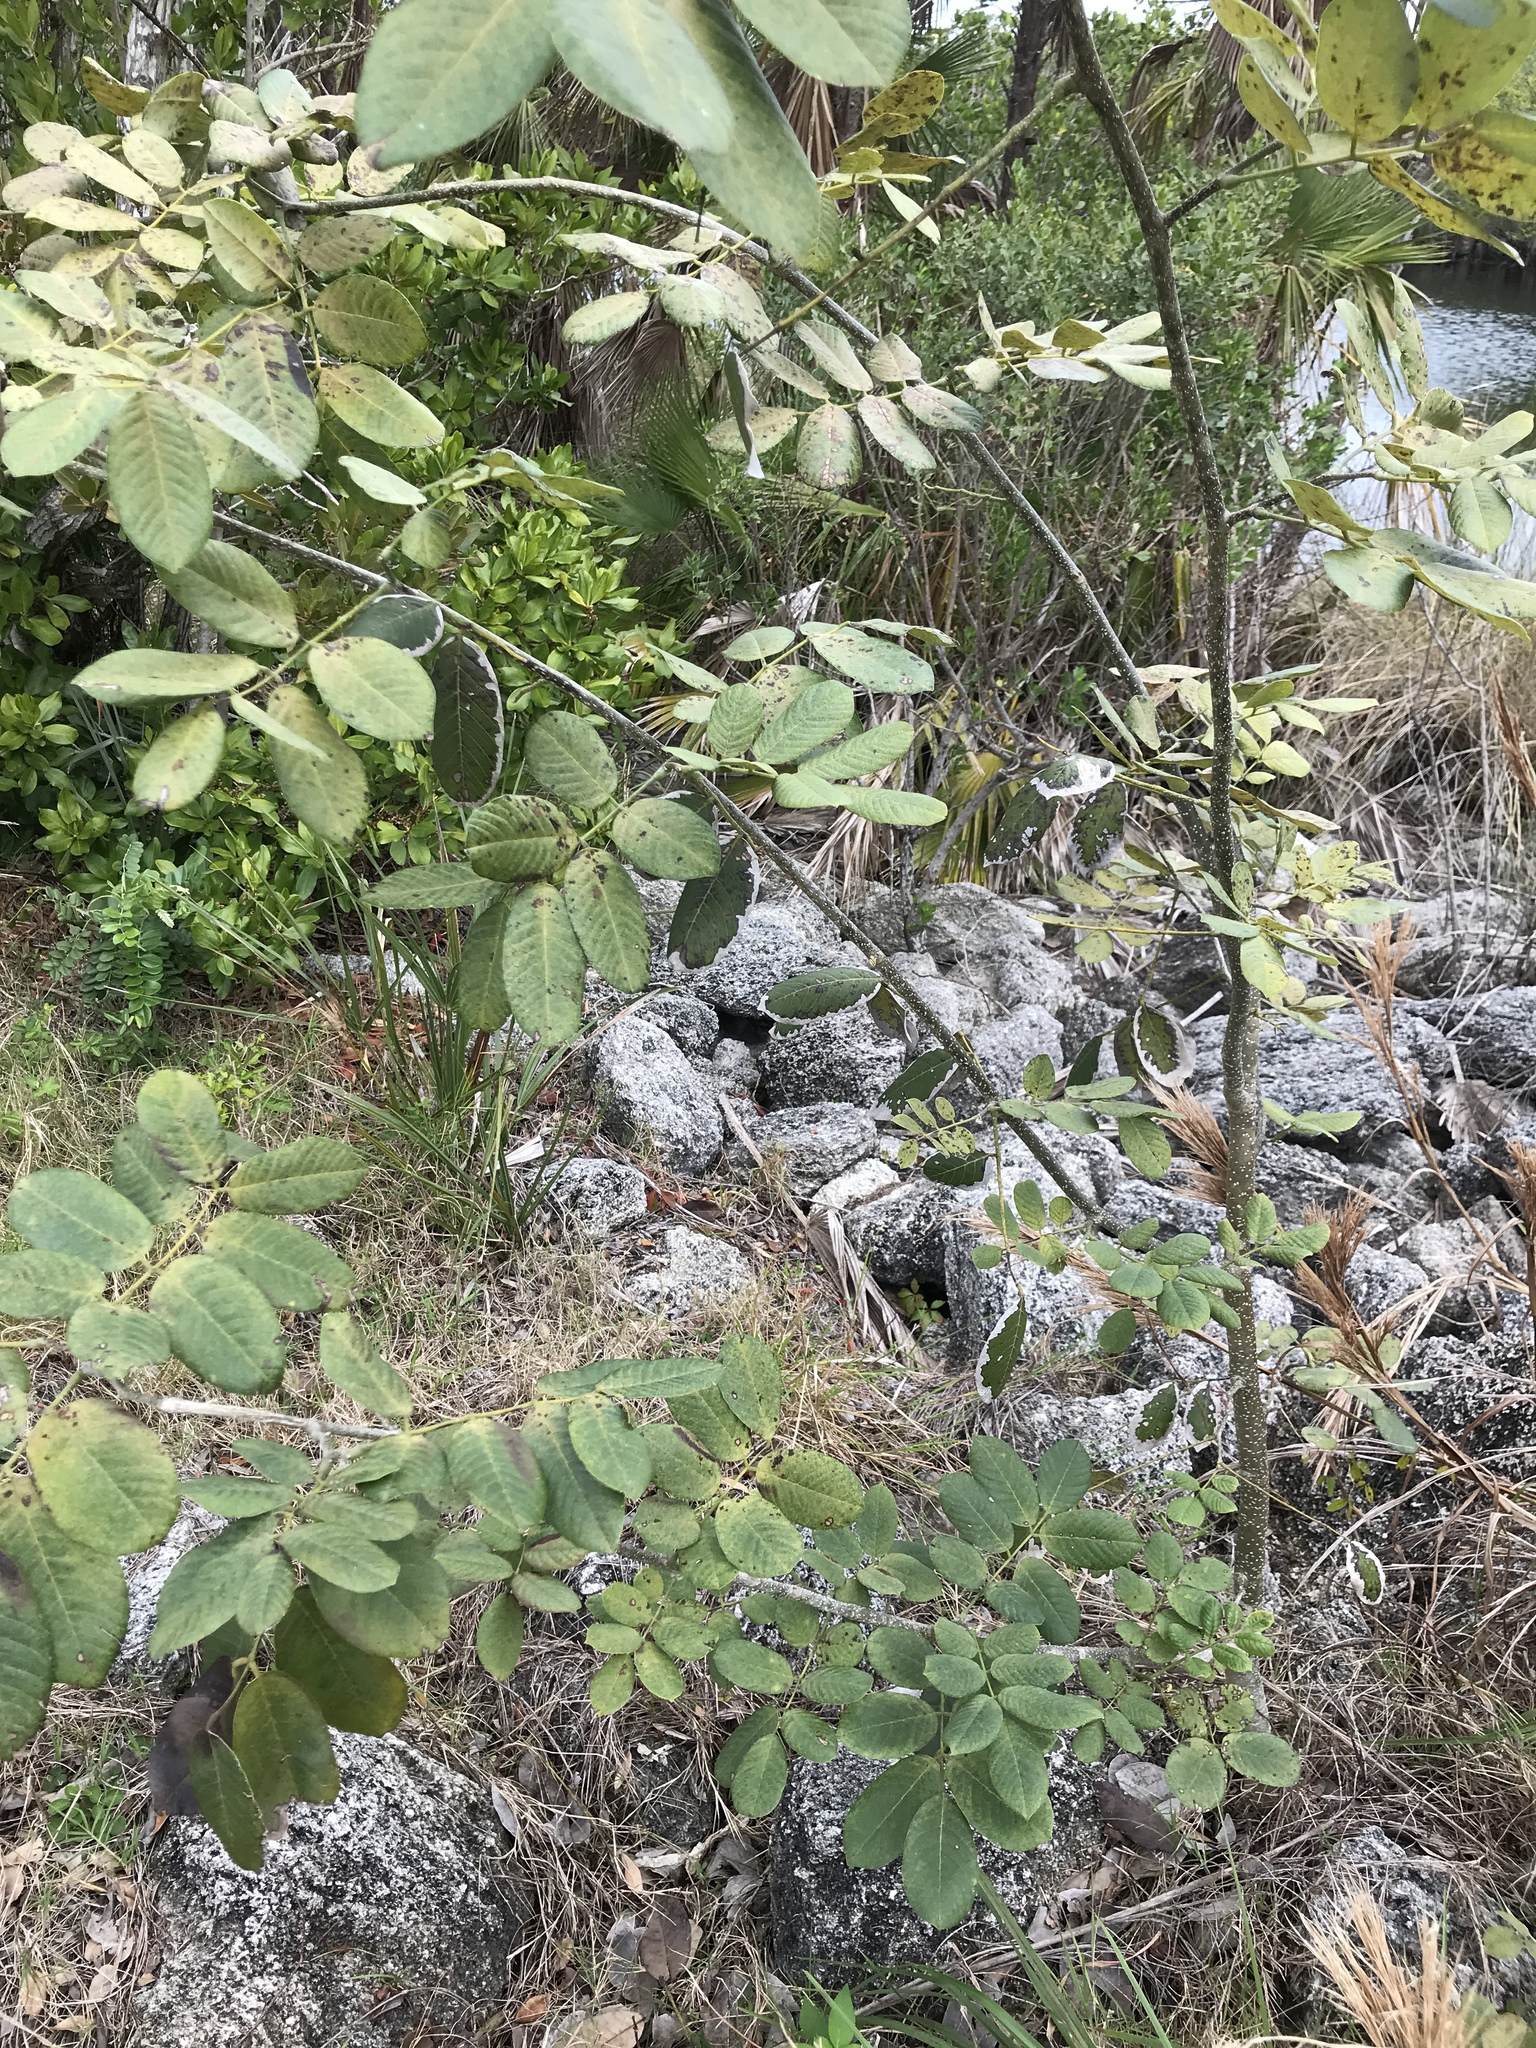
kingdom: Plantae
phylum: Tracheophyta
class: Magnoliopsida
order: Fabales
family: Fabaceae
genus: Piscidia
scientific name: Piscidia piscipula
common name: Florida fishpoison tree
